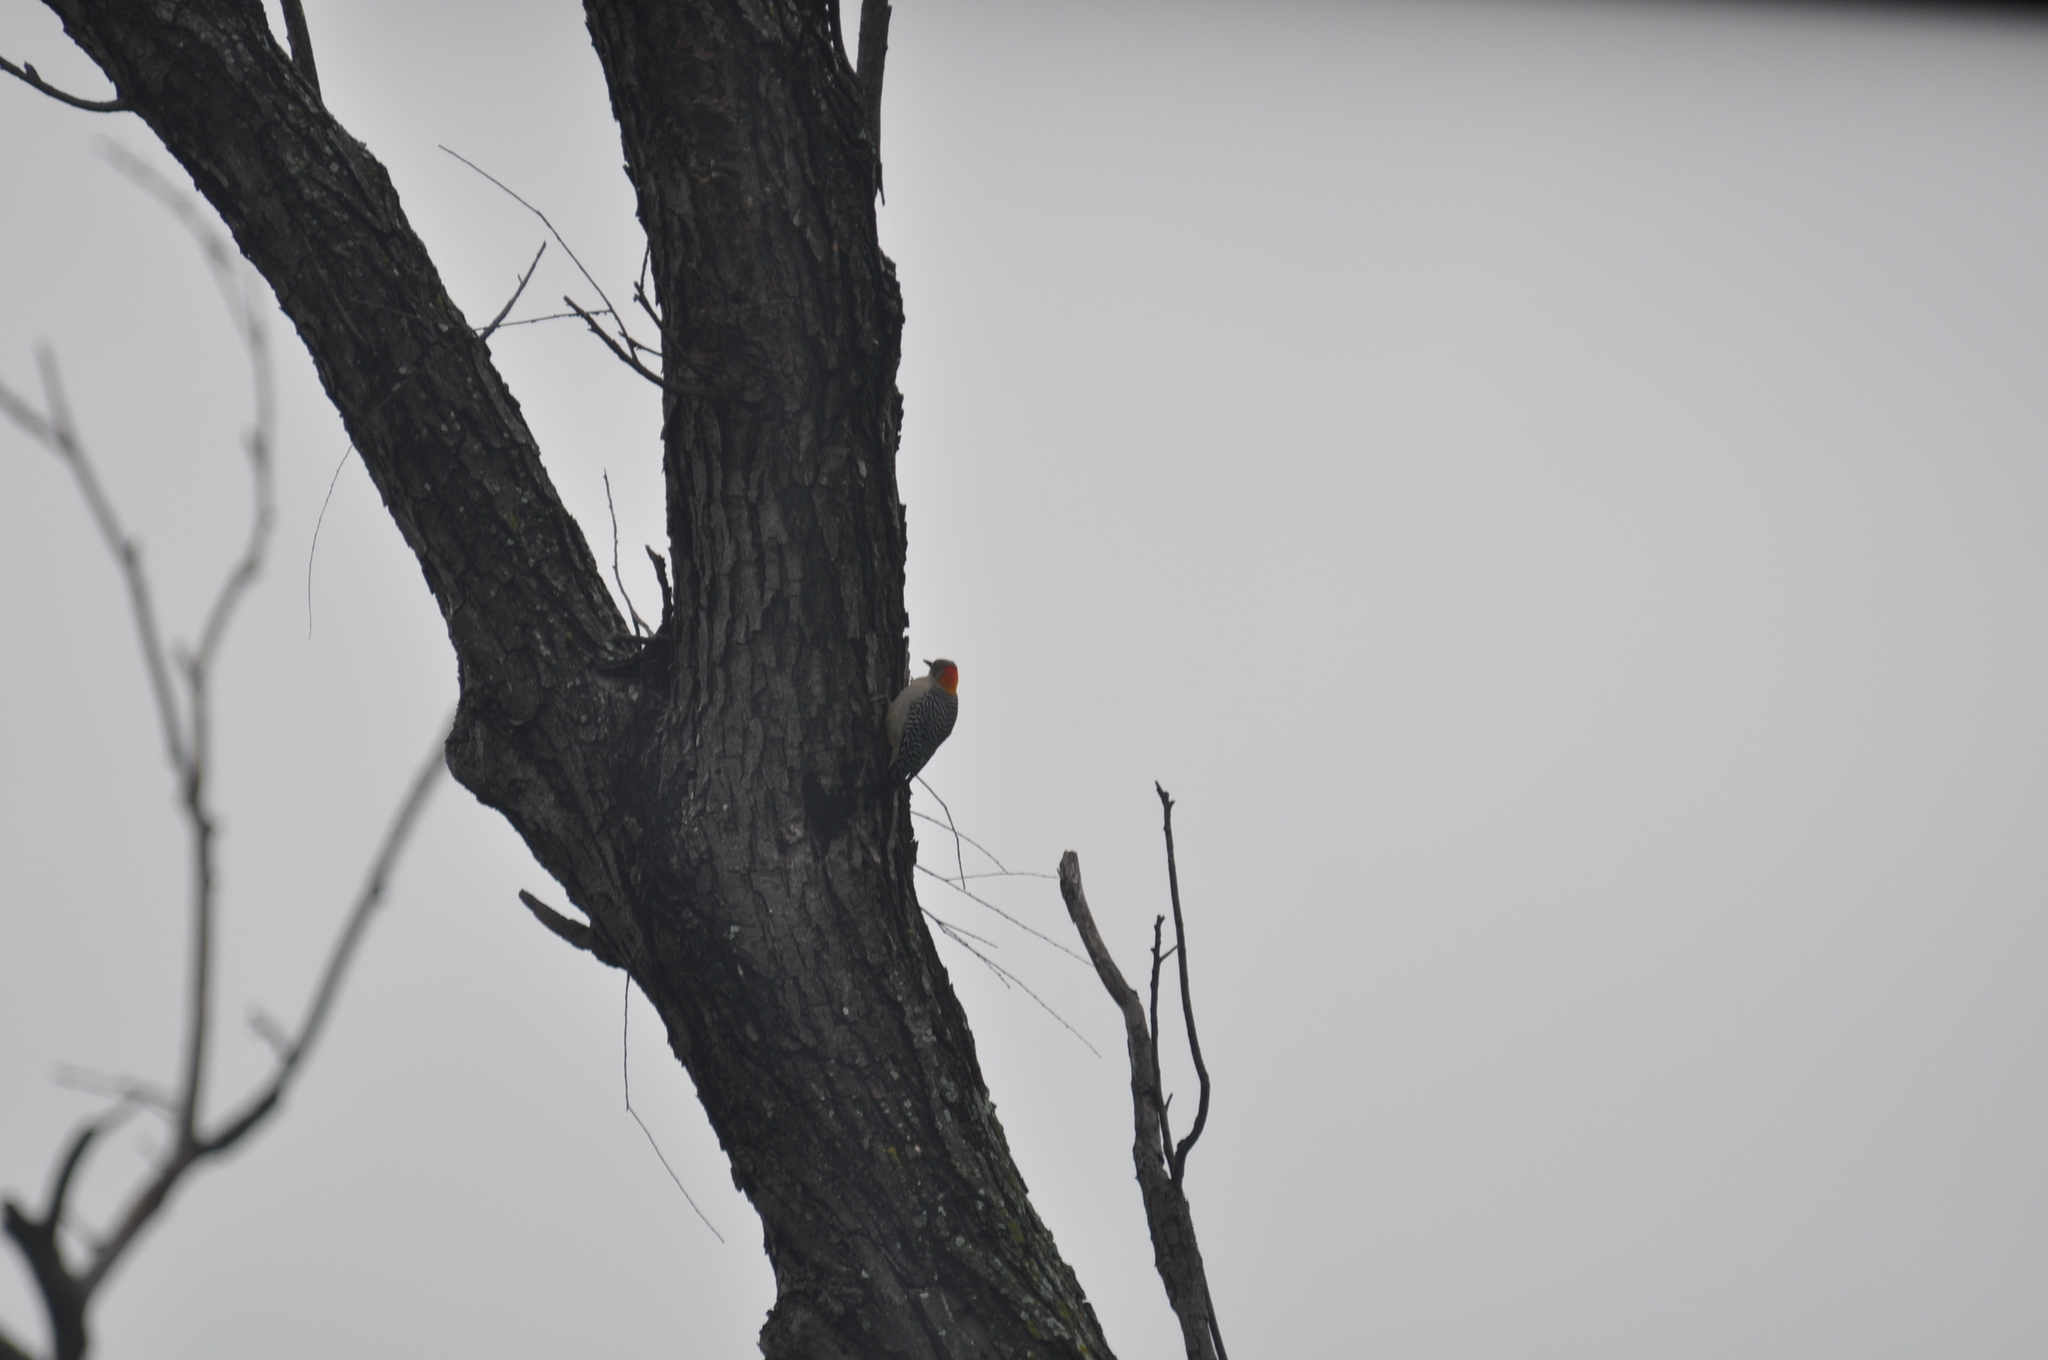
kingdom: Animalia
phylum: Chordata
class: Aves
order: Piciformes
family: Picidae
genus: Melanerpes
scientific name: Melanerpes aurifrons
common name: Golden-fronted woodpecker
